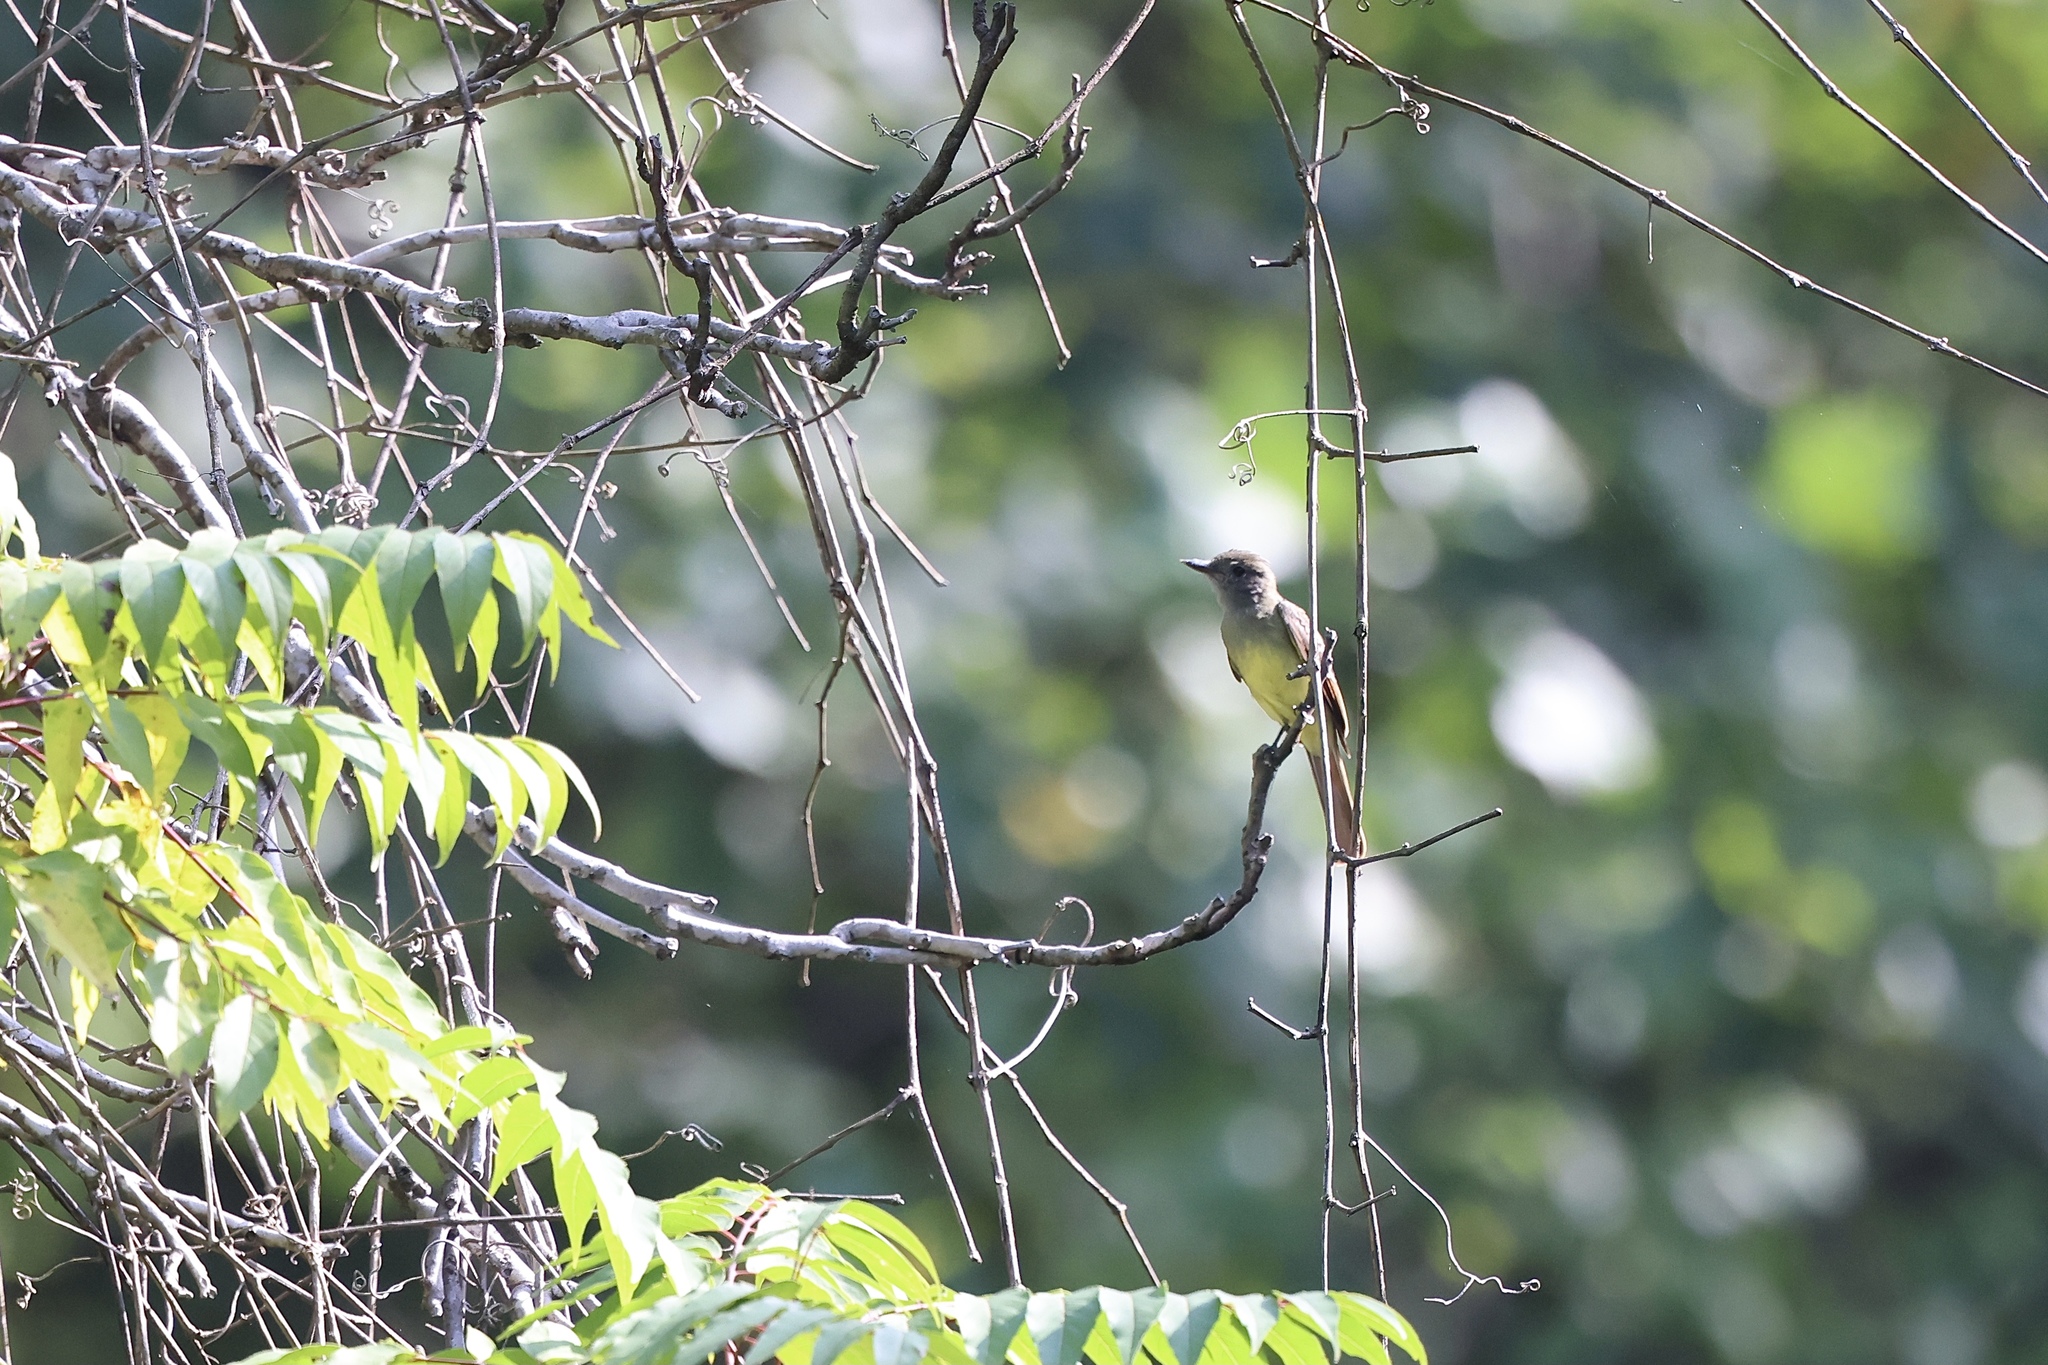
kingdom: Animalia
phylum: Chordata
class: Aves
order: Passeriformes
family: Tyrannidae
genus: Myiarchus
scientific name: Myiarchus crinitus
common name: Great crested flycatcher
